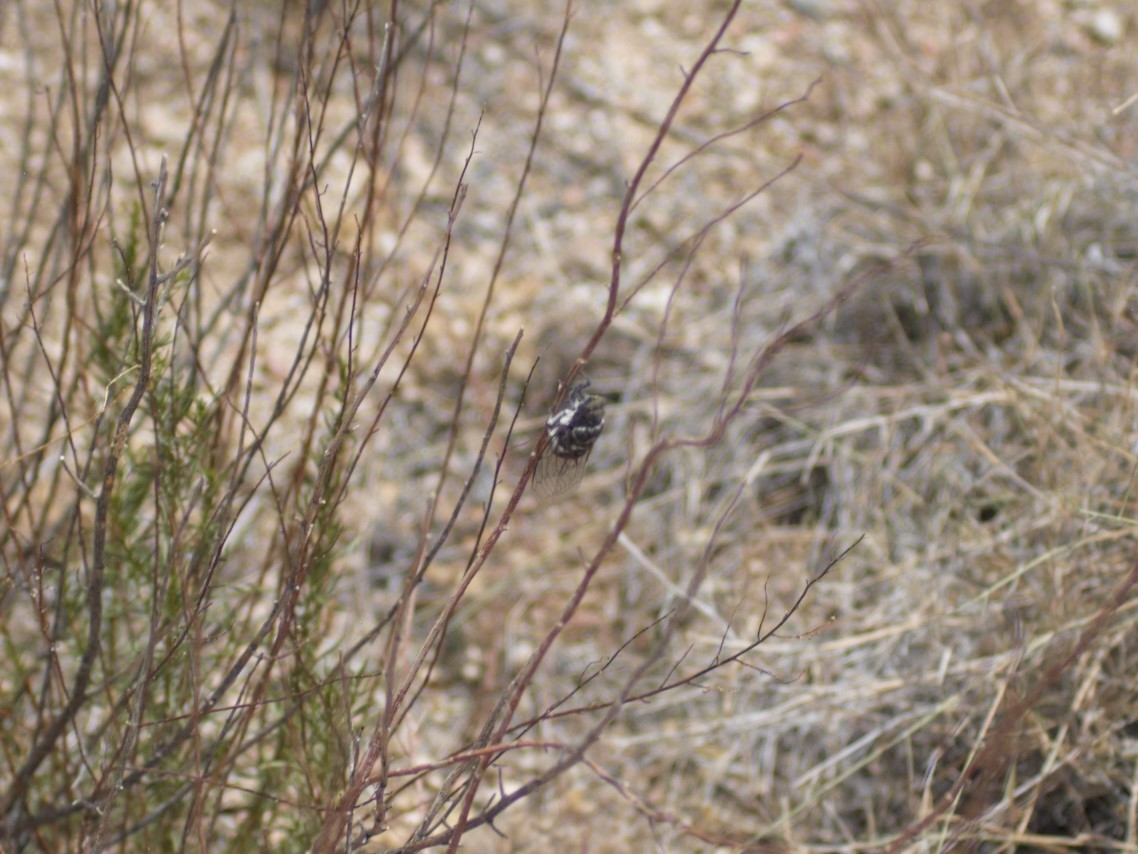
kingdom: Animalia
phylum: Arthropoda
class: Insecta
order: Hemiptera
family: Cicadidae
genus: Cacama
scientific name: Cacama valvata
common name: Cactus dodger
